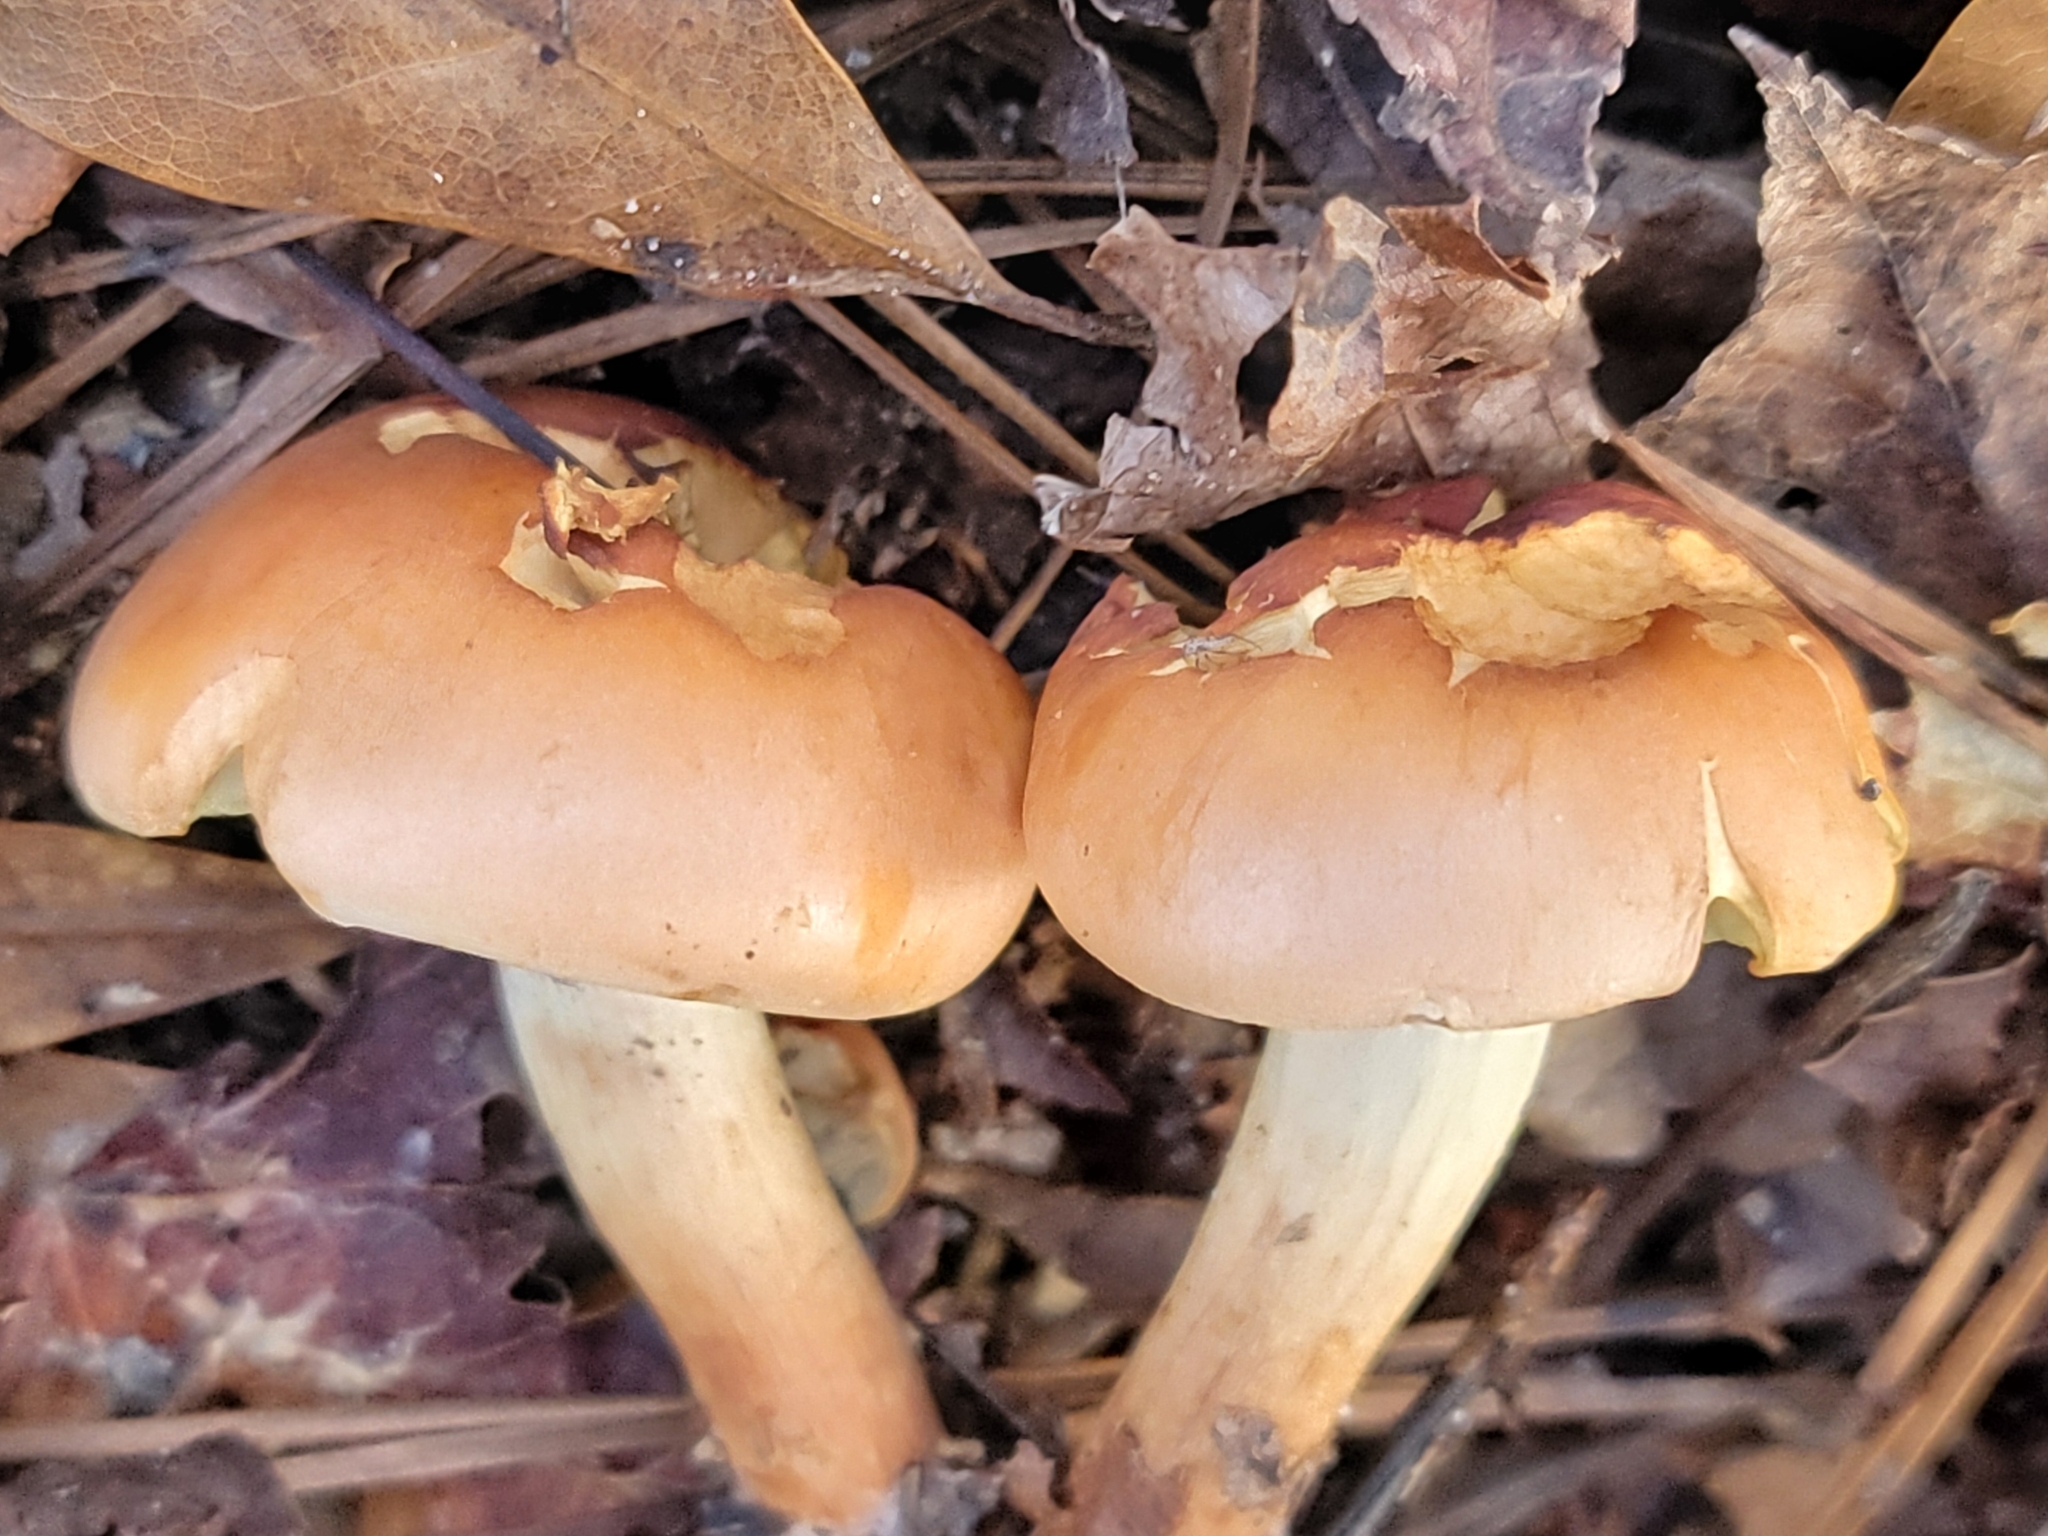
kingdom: Fungi
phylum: Basidiomycota
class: Agaricomycetes
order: Agaricales
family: Strophariaceae
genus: Hypholoma
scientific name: Hypholoma lateritium
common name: Brick caps
